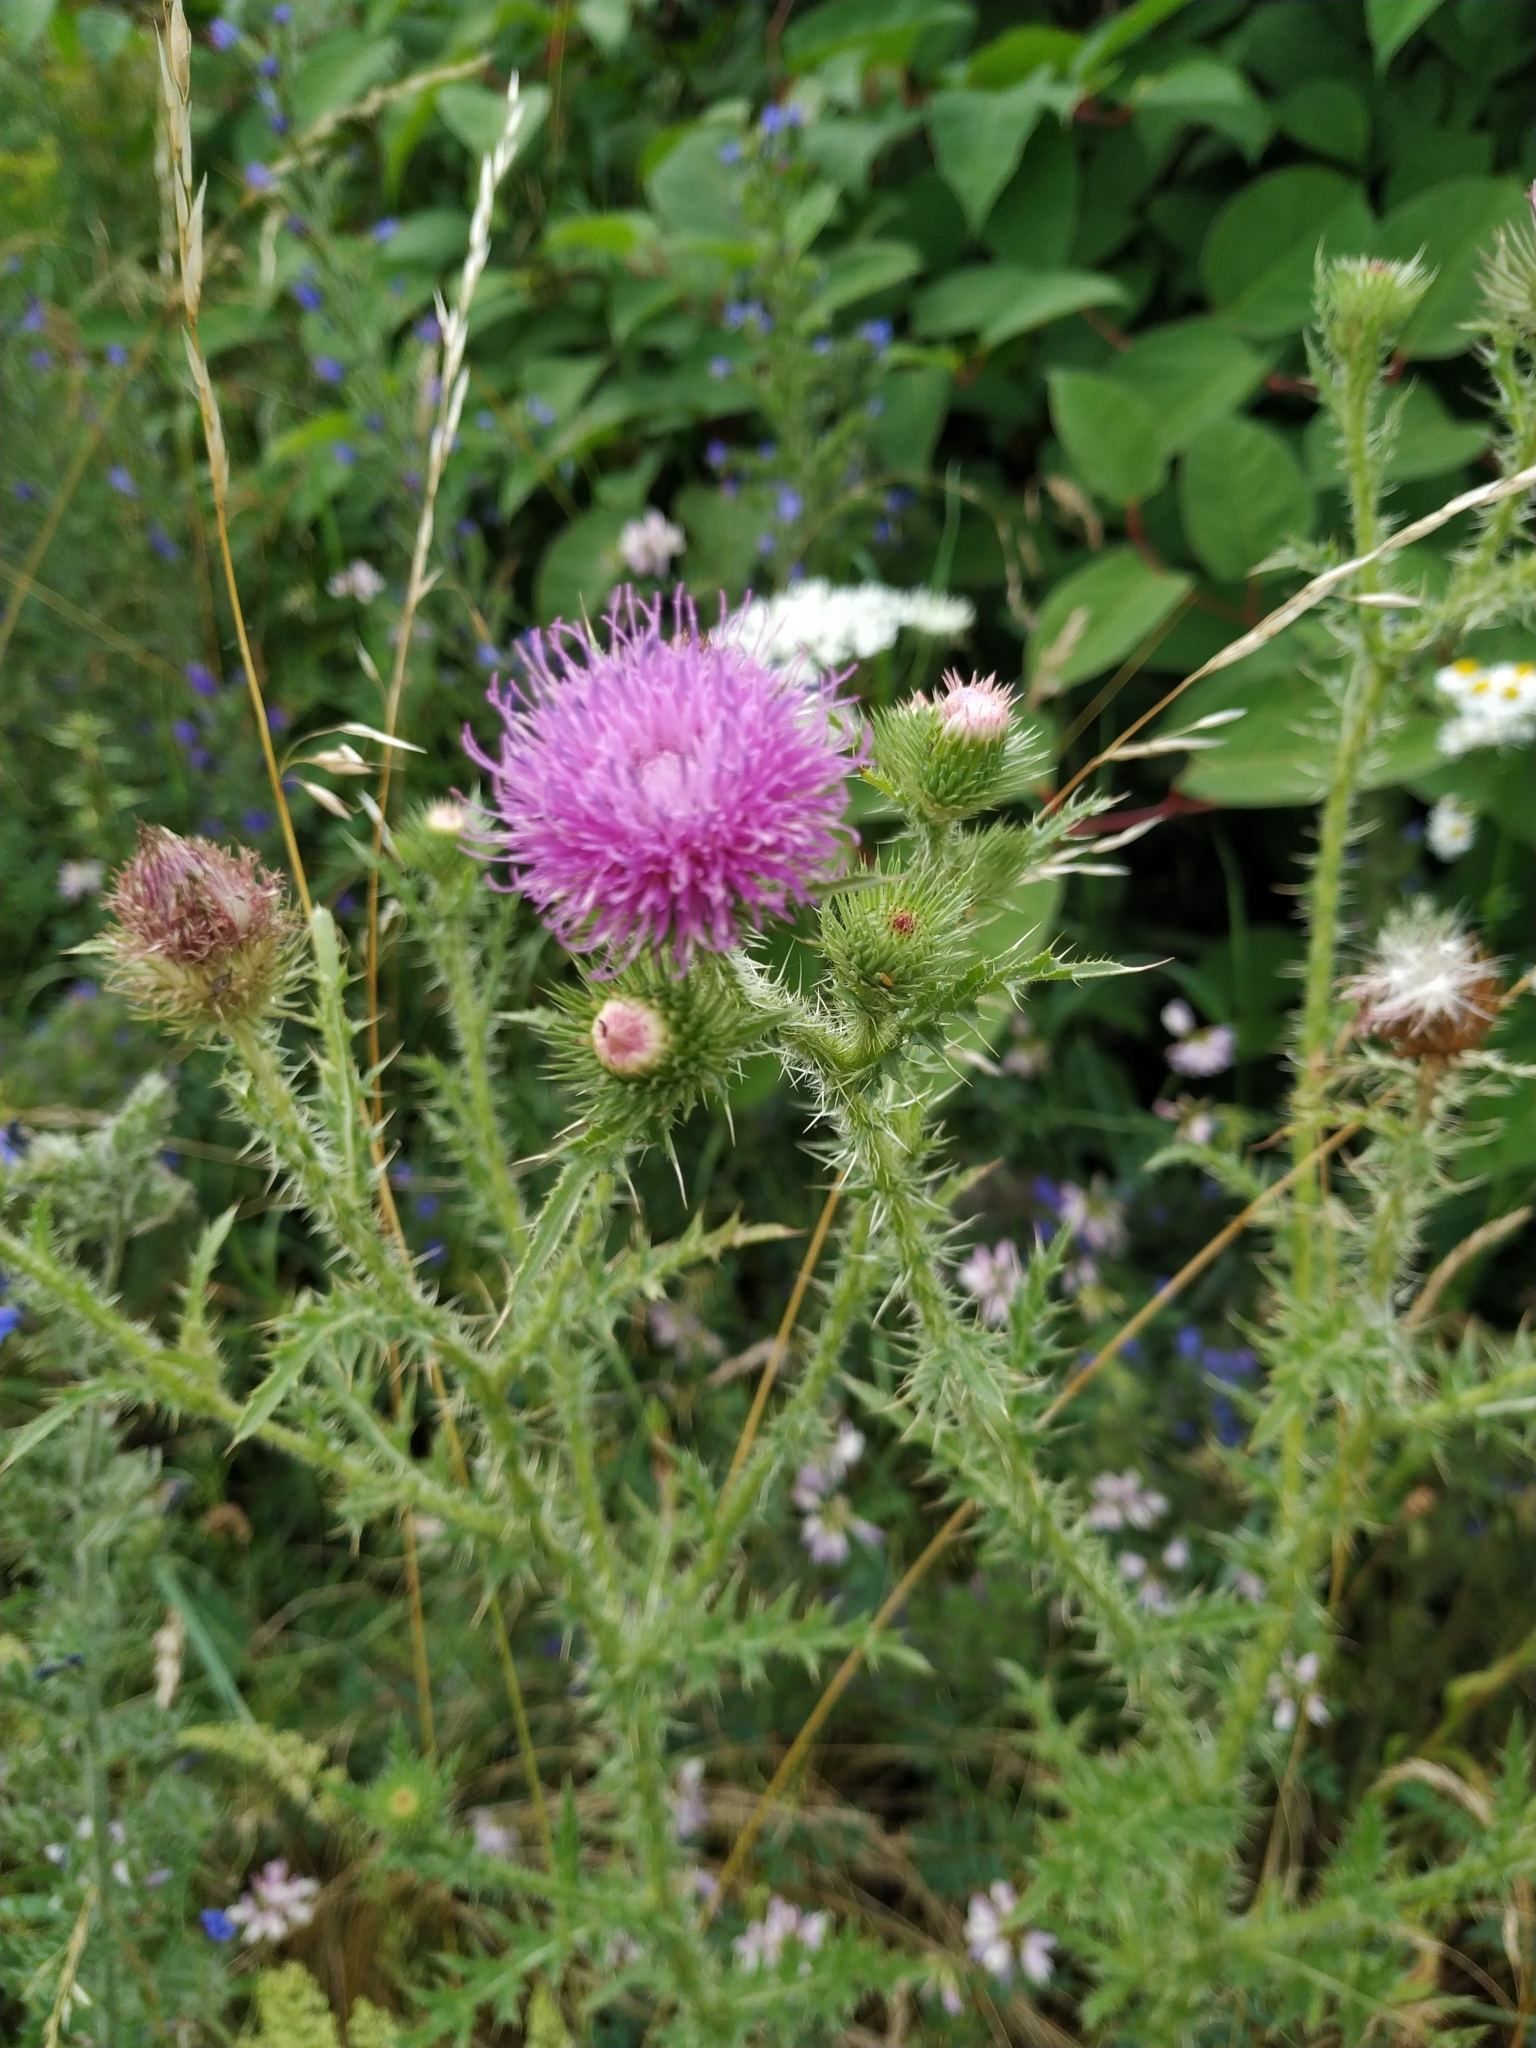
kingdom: Plantae
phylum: Tracheophyta
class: Magnoliopsida
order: Asterales
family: Asteraceae
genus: Carduus
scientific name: Carduus acanthoides
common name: Plumeless thistle
